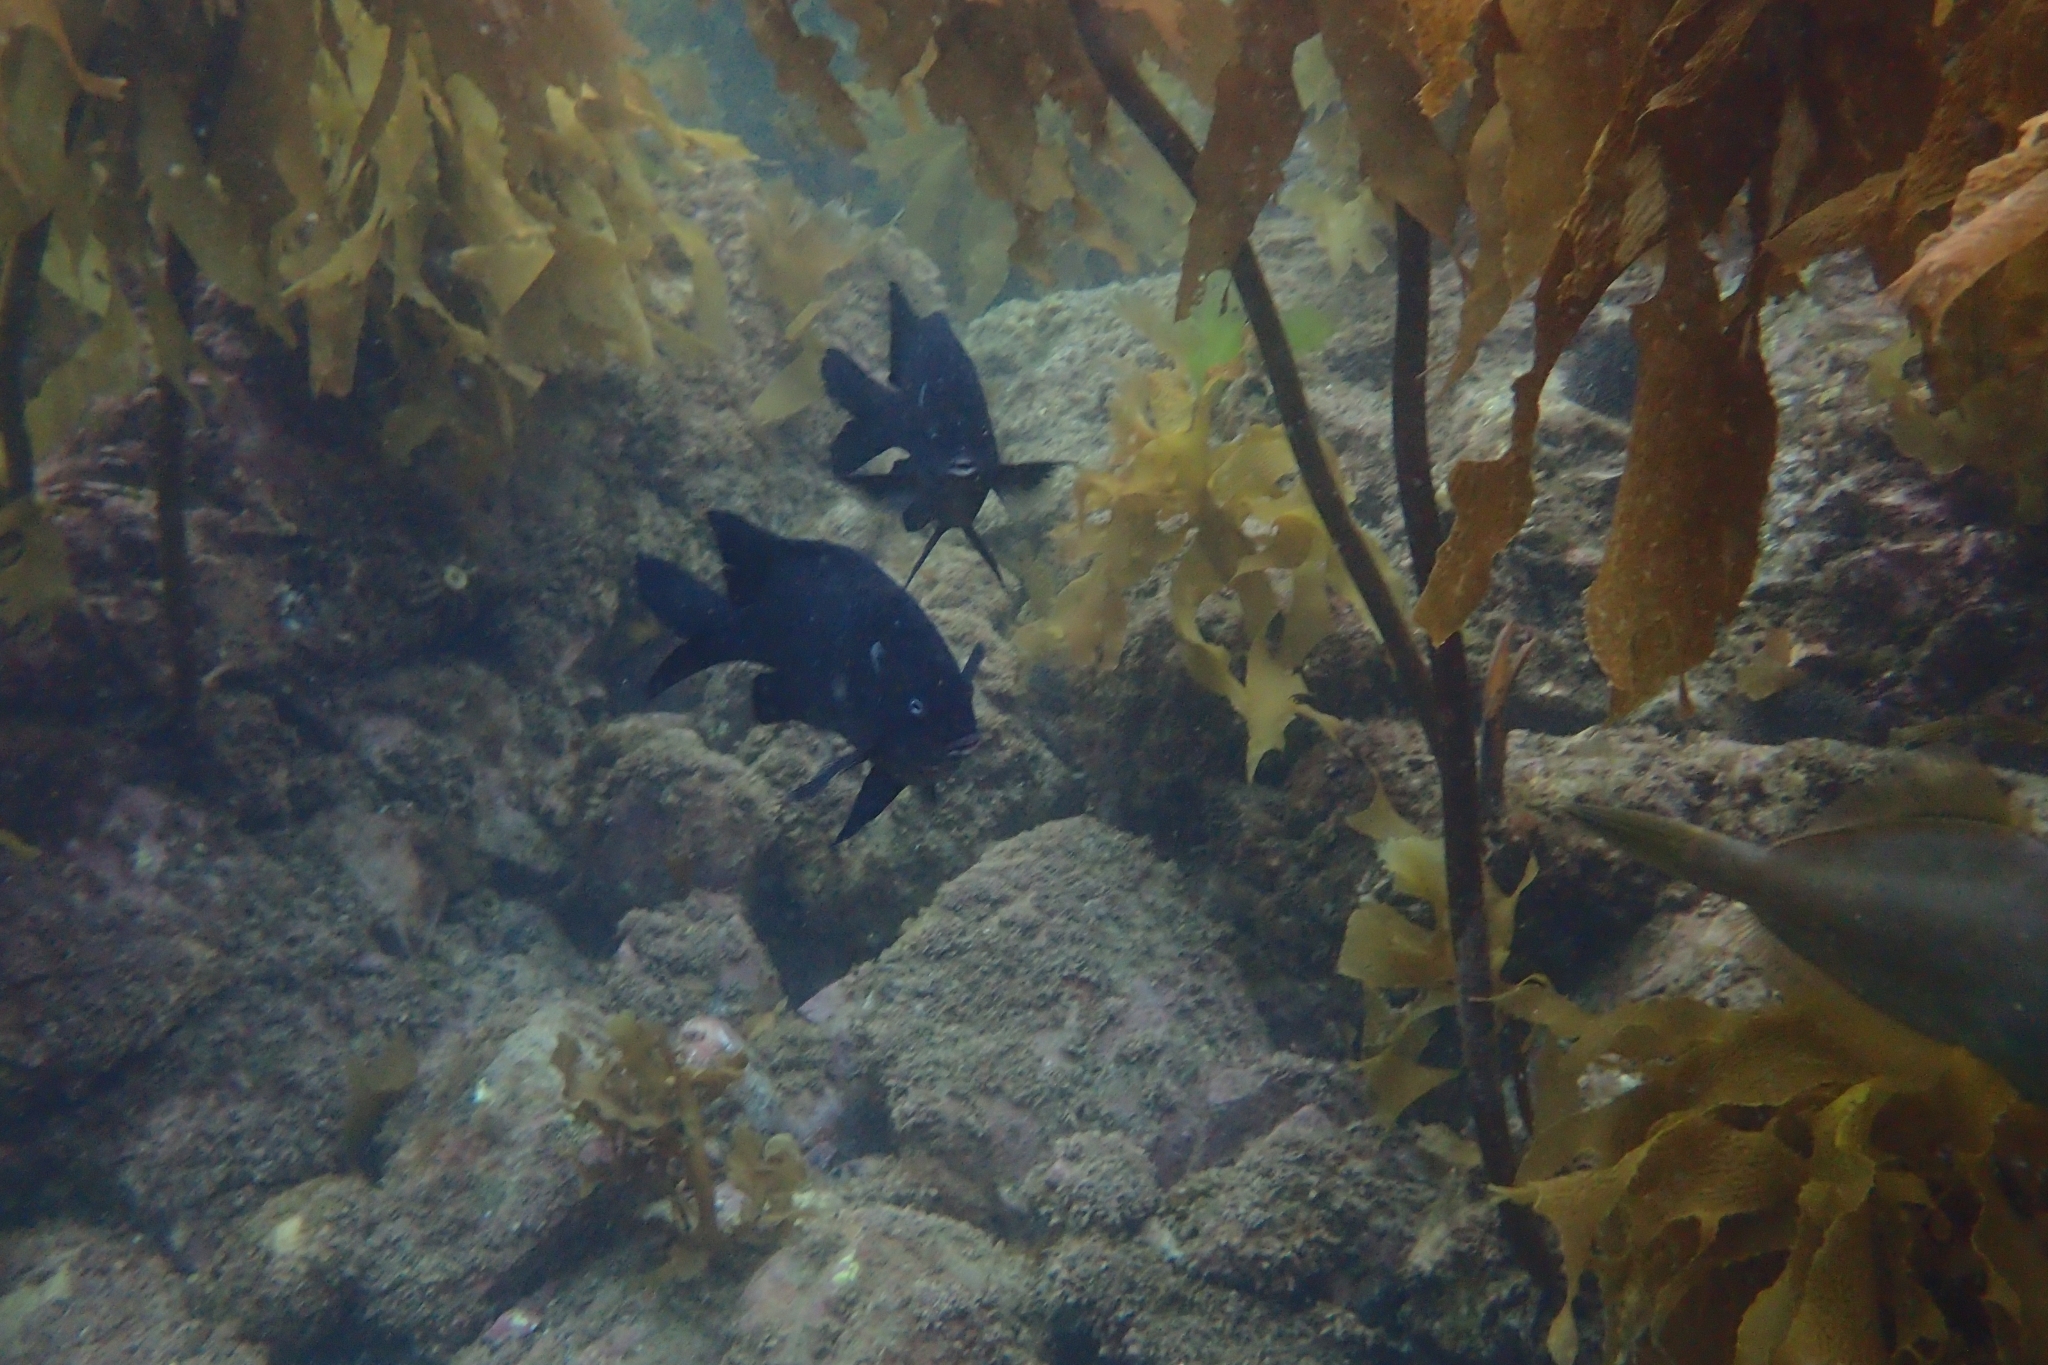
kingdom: Animalia
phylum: Chordata
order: Perciformes
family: Pomacentridae
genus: Parma
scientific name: Parma alboscapularis
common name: Black angelfish
